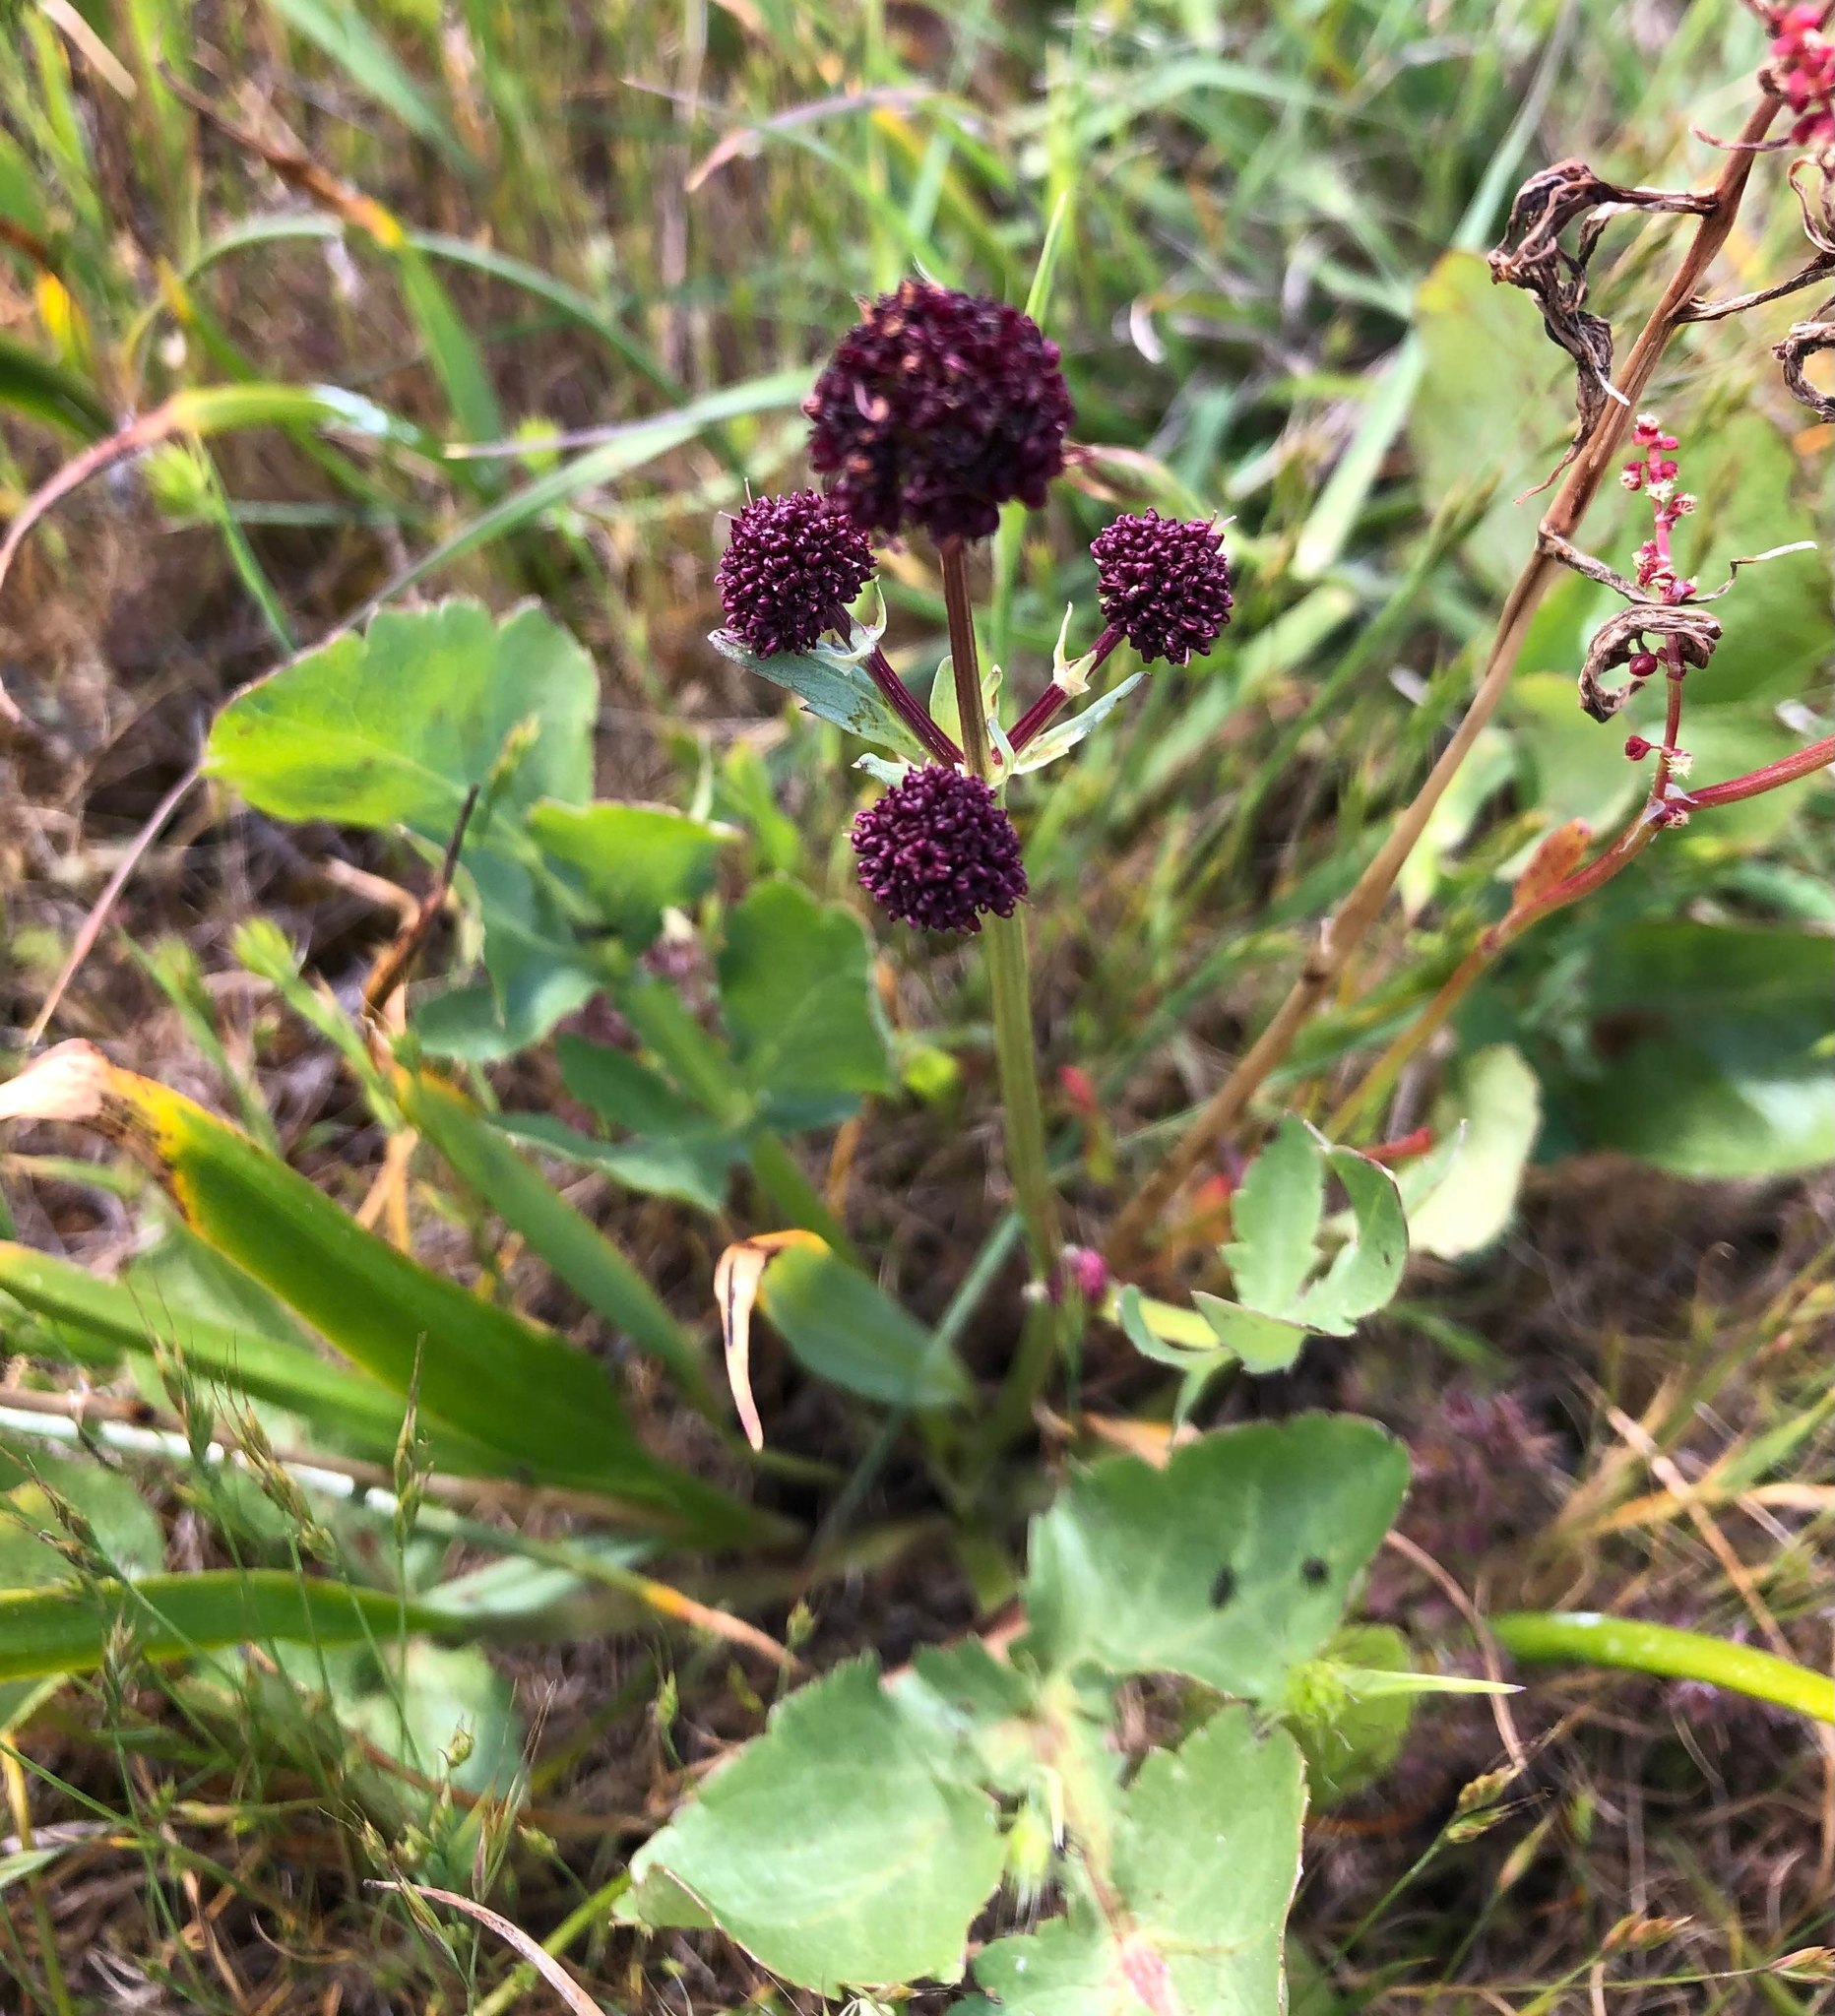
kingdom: Plantae
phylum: Tracheophyta
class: Magnoliopsida
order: Apiales
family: Apiaceae
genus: Sanicula
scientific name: Sanicula bipinnatifida
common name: Shoe-buttons
